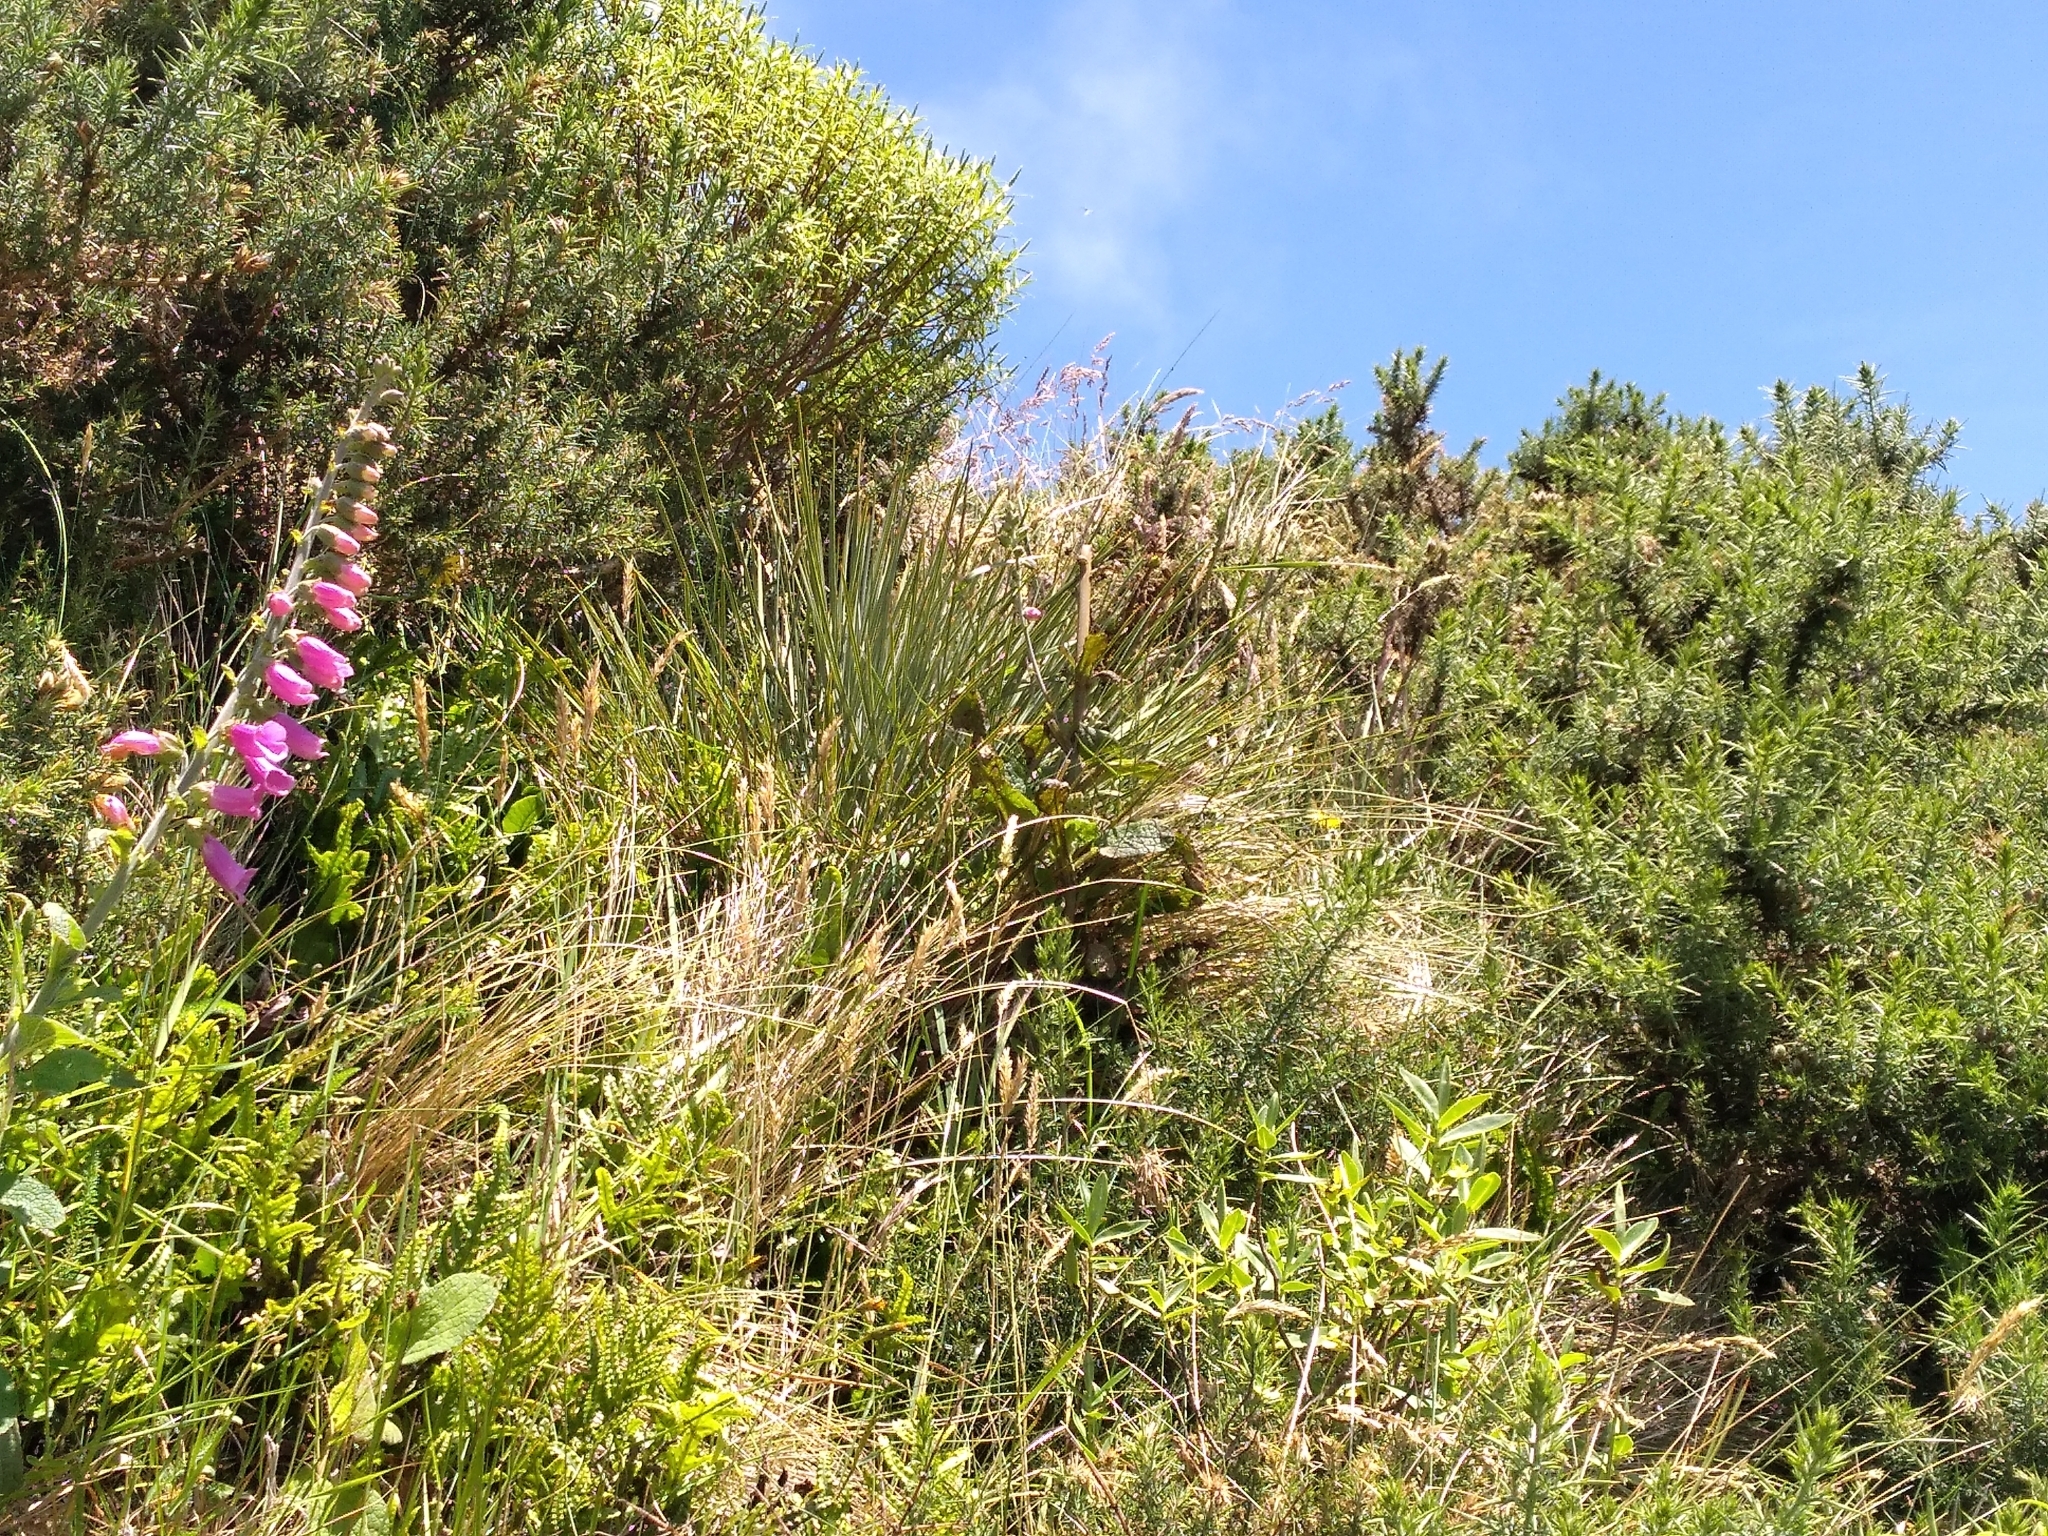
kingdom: Plantae
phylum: Tracheophyta
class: Magnoliopsida
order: Apiales
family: Apiaceae
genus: Aciphylla
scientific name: Aciphylla squarrosa
